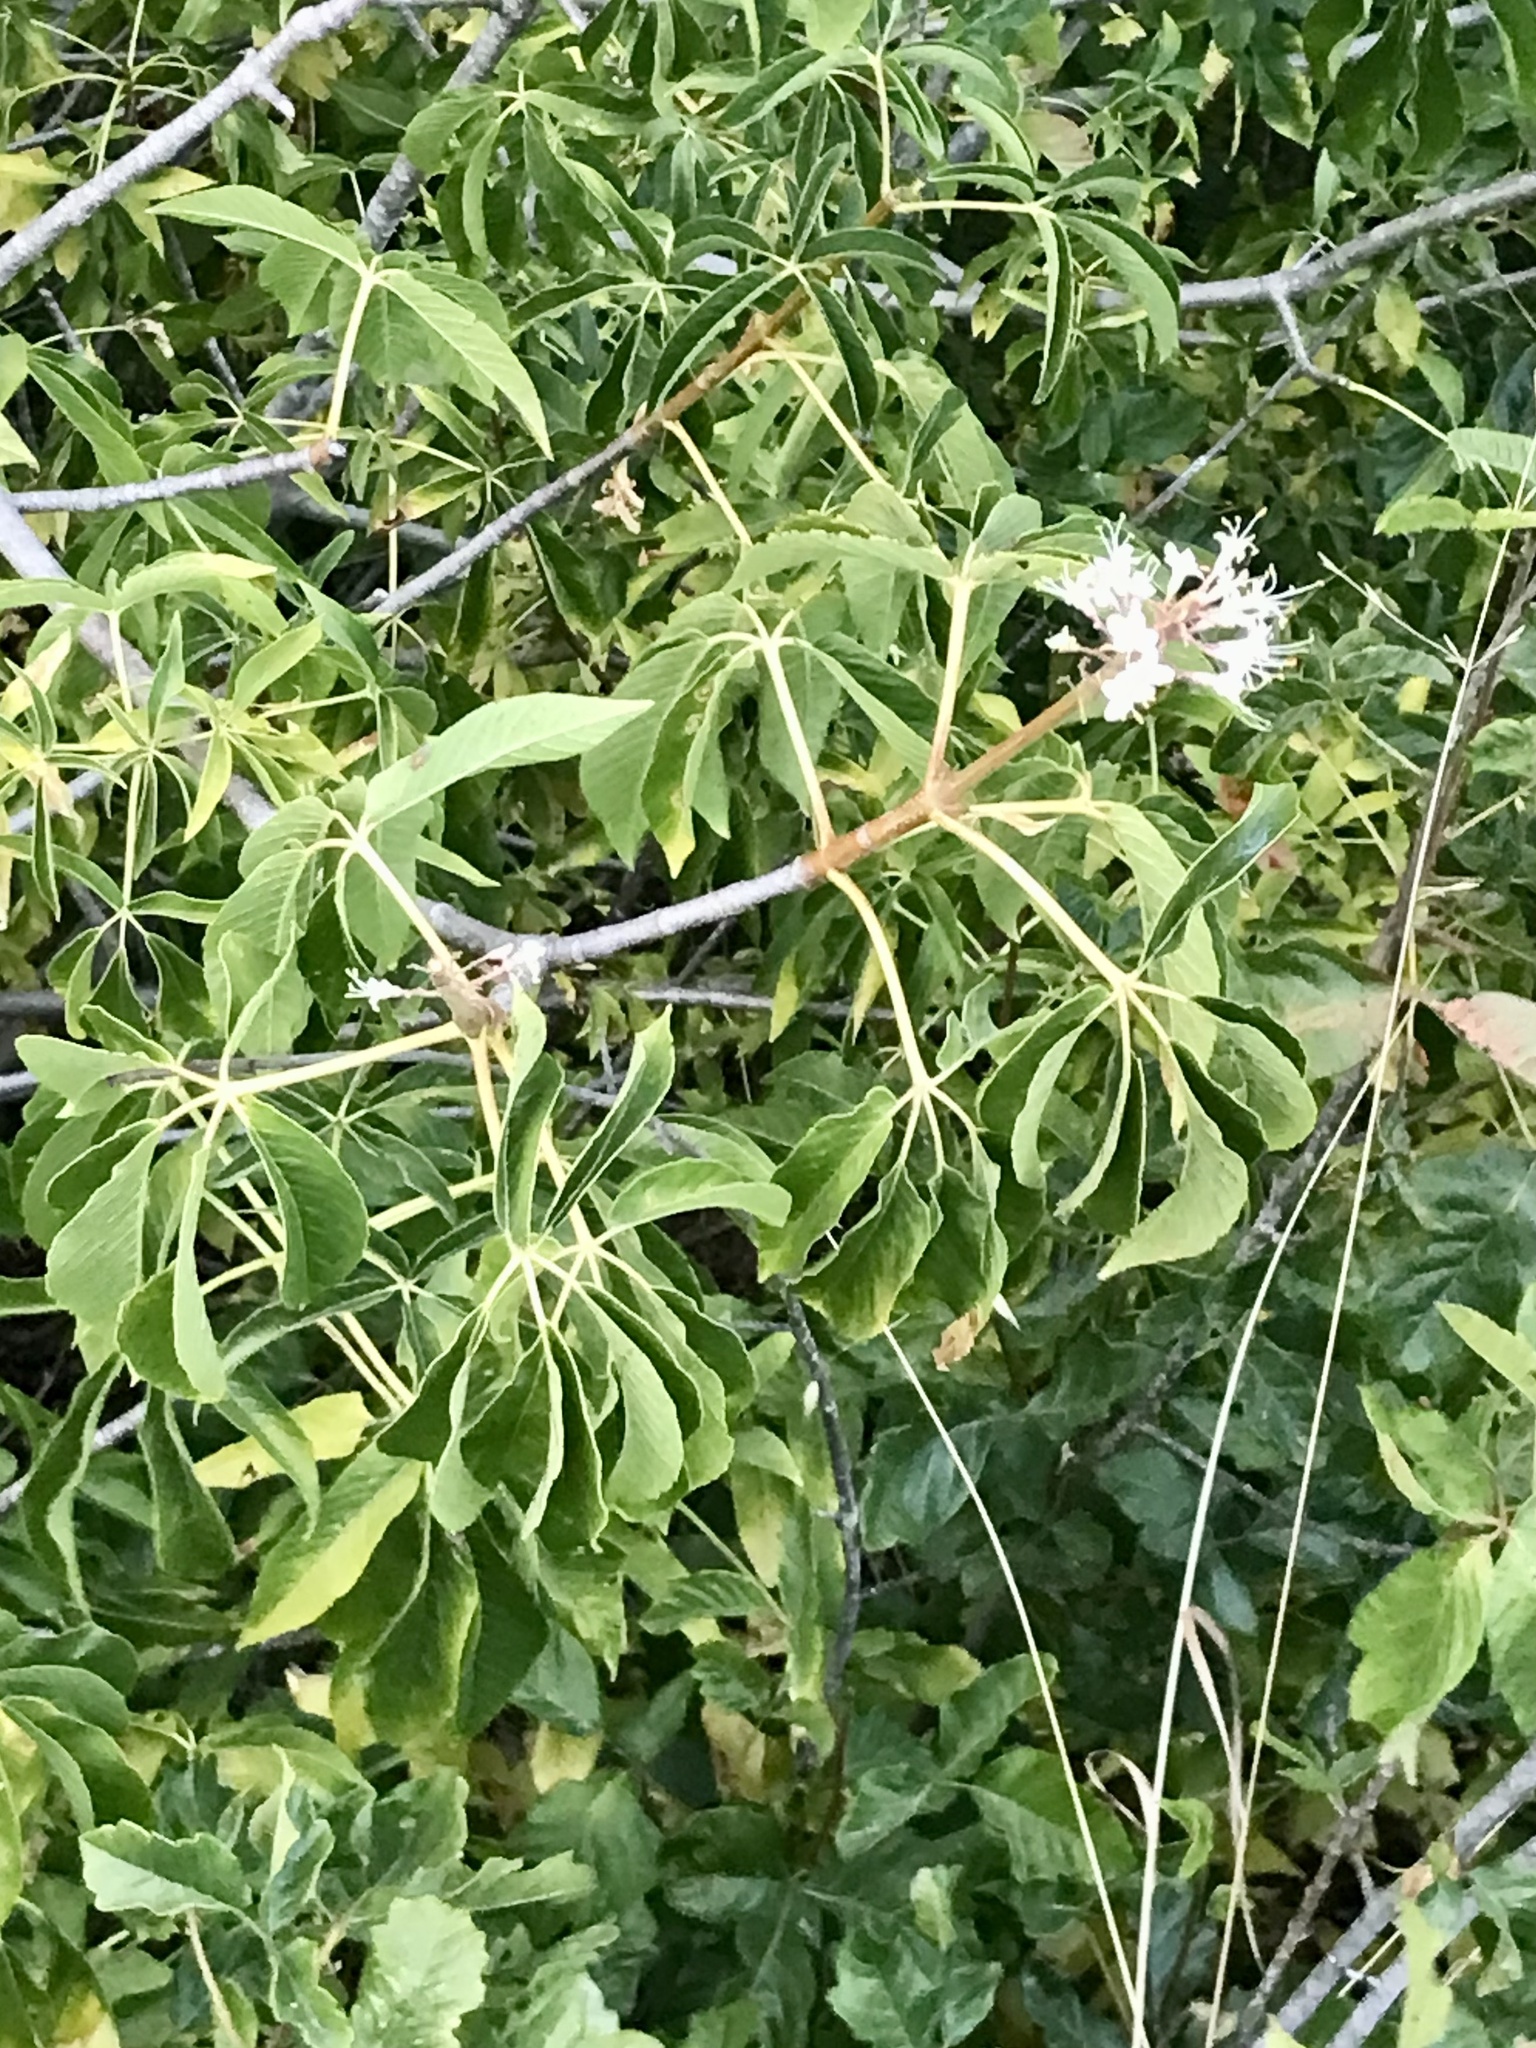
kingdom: Plantae
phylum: Tracheophyta
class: Magnoliopsida
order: Sapindales
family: Sapindaceae
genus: Aesculus
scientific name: Aesculus californica
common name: California buckeye
